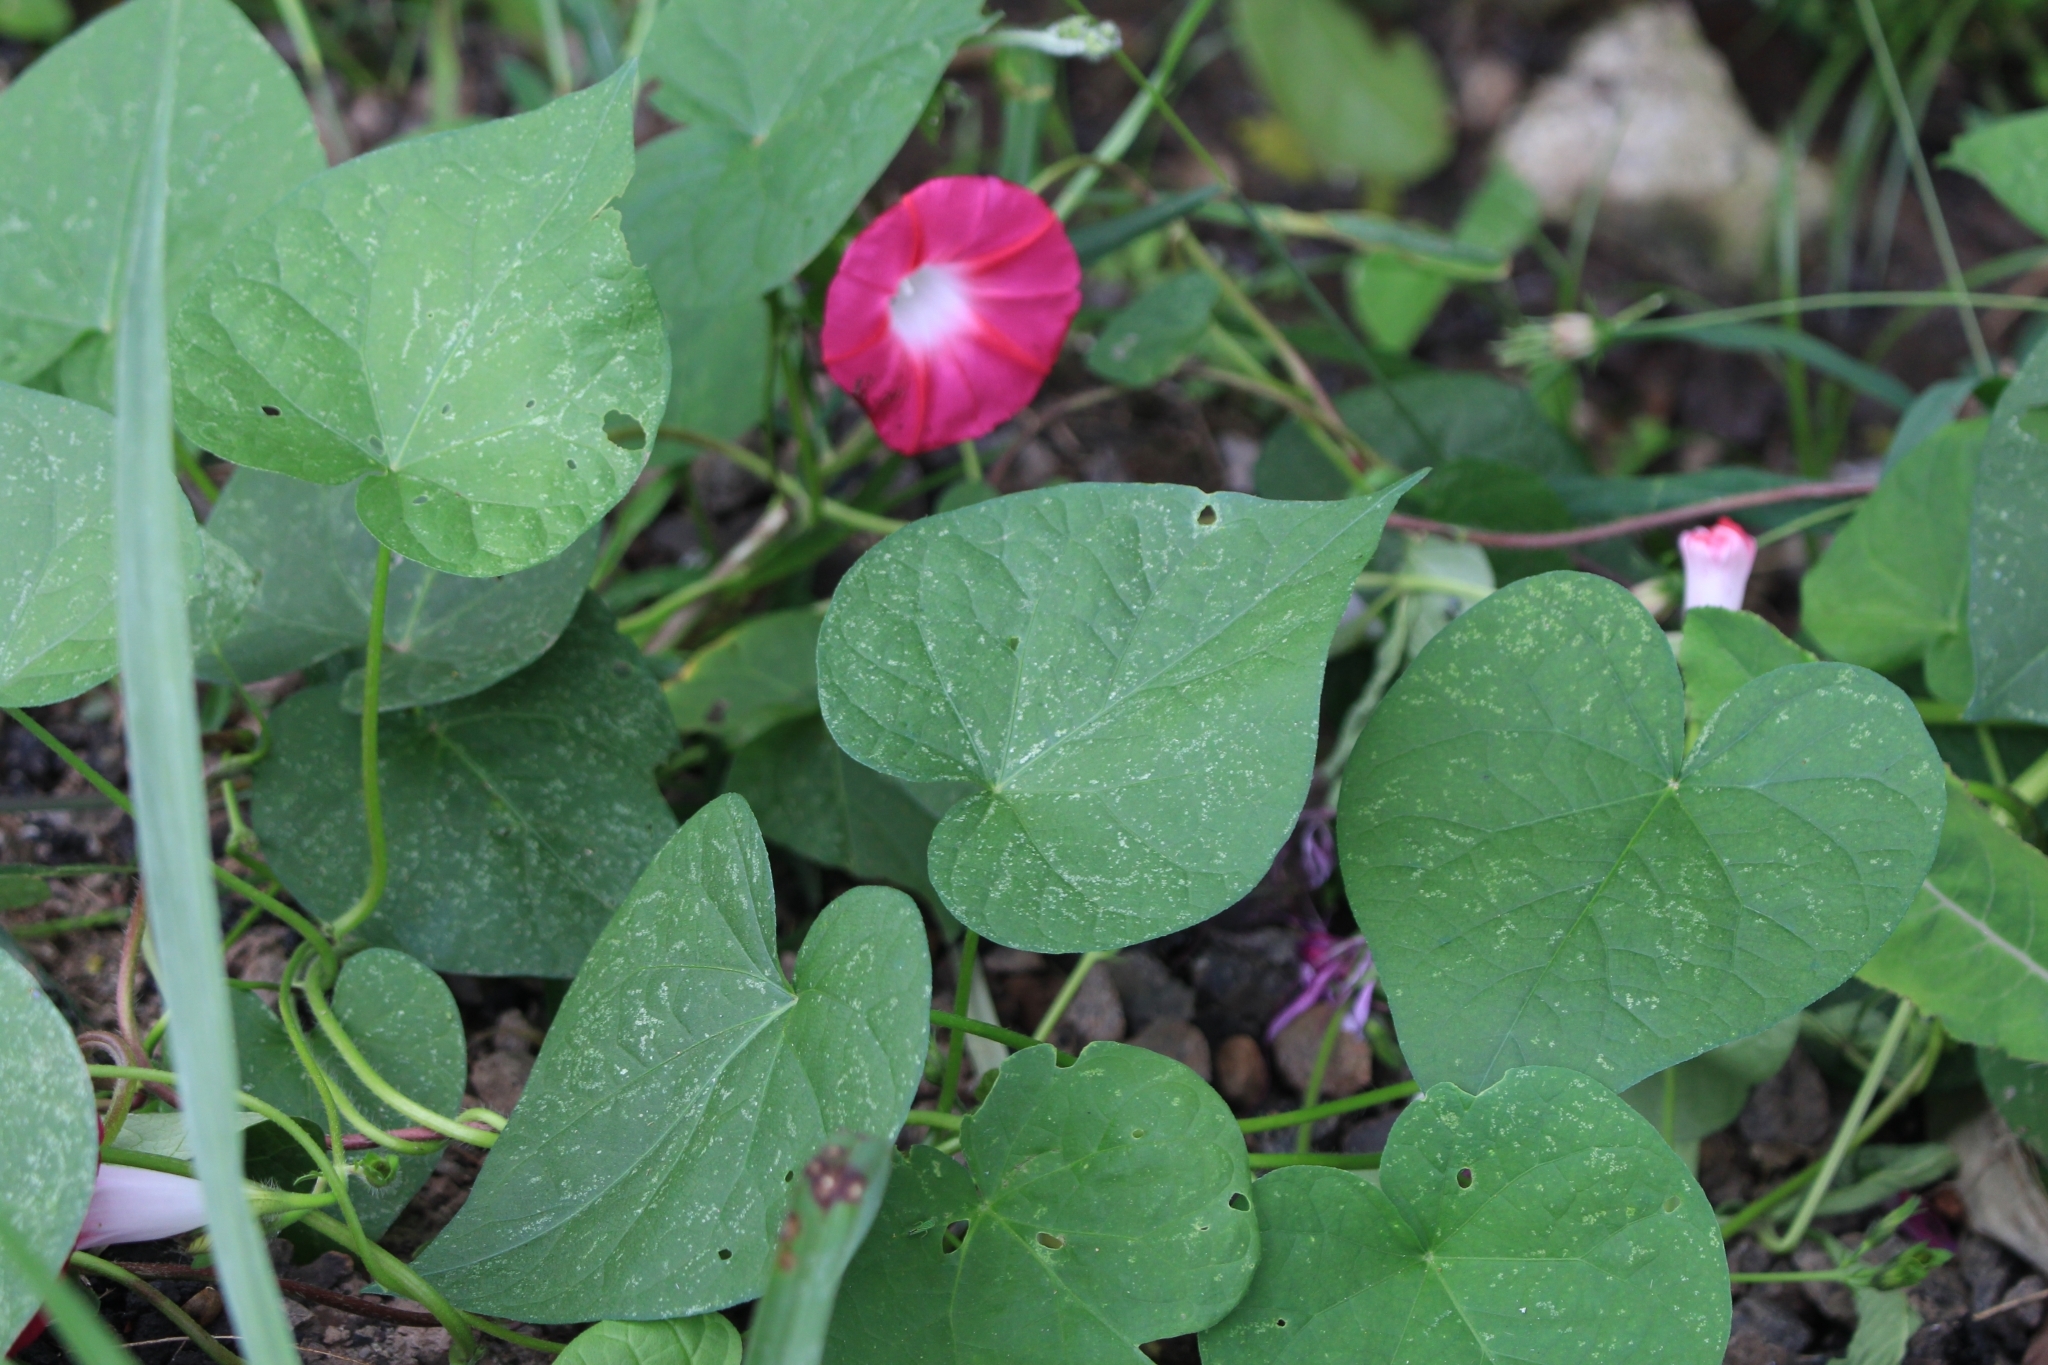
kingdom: Plantae
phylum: Tracheophyta
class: Magnoliopsida
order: Solanales
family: Convolvulaceae
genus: Ipomoea
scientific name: Ipomoea purpurea
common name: Common morning-glory
